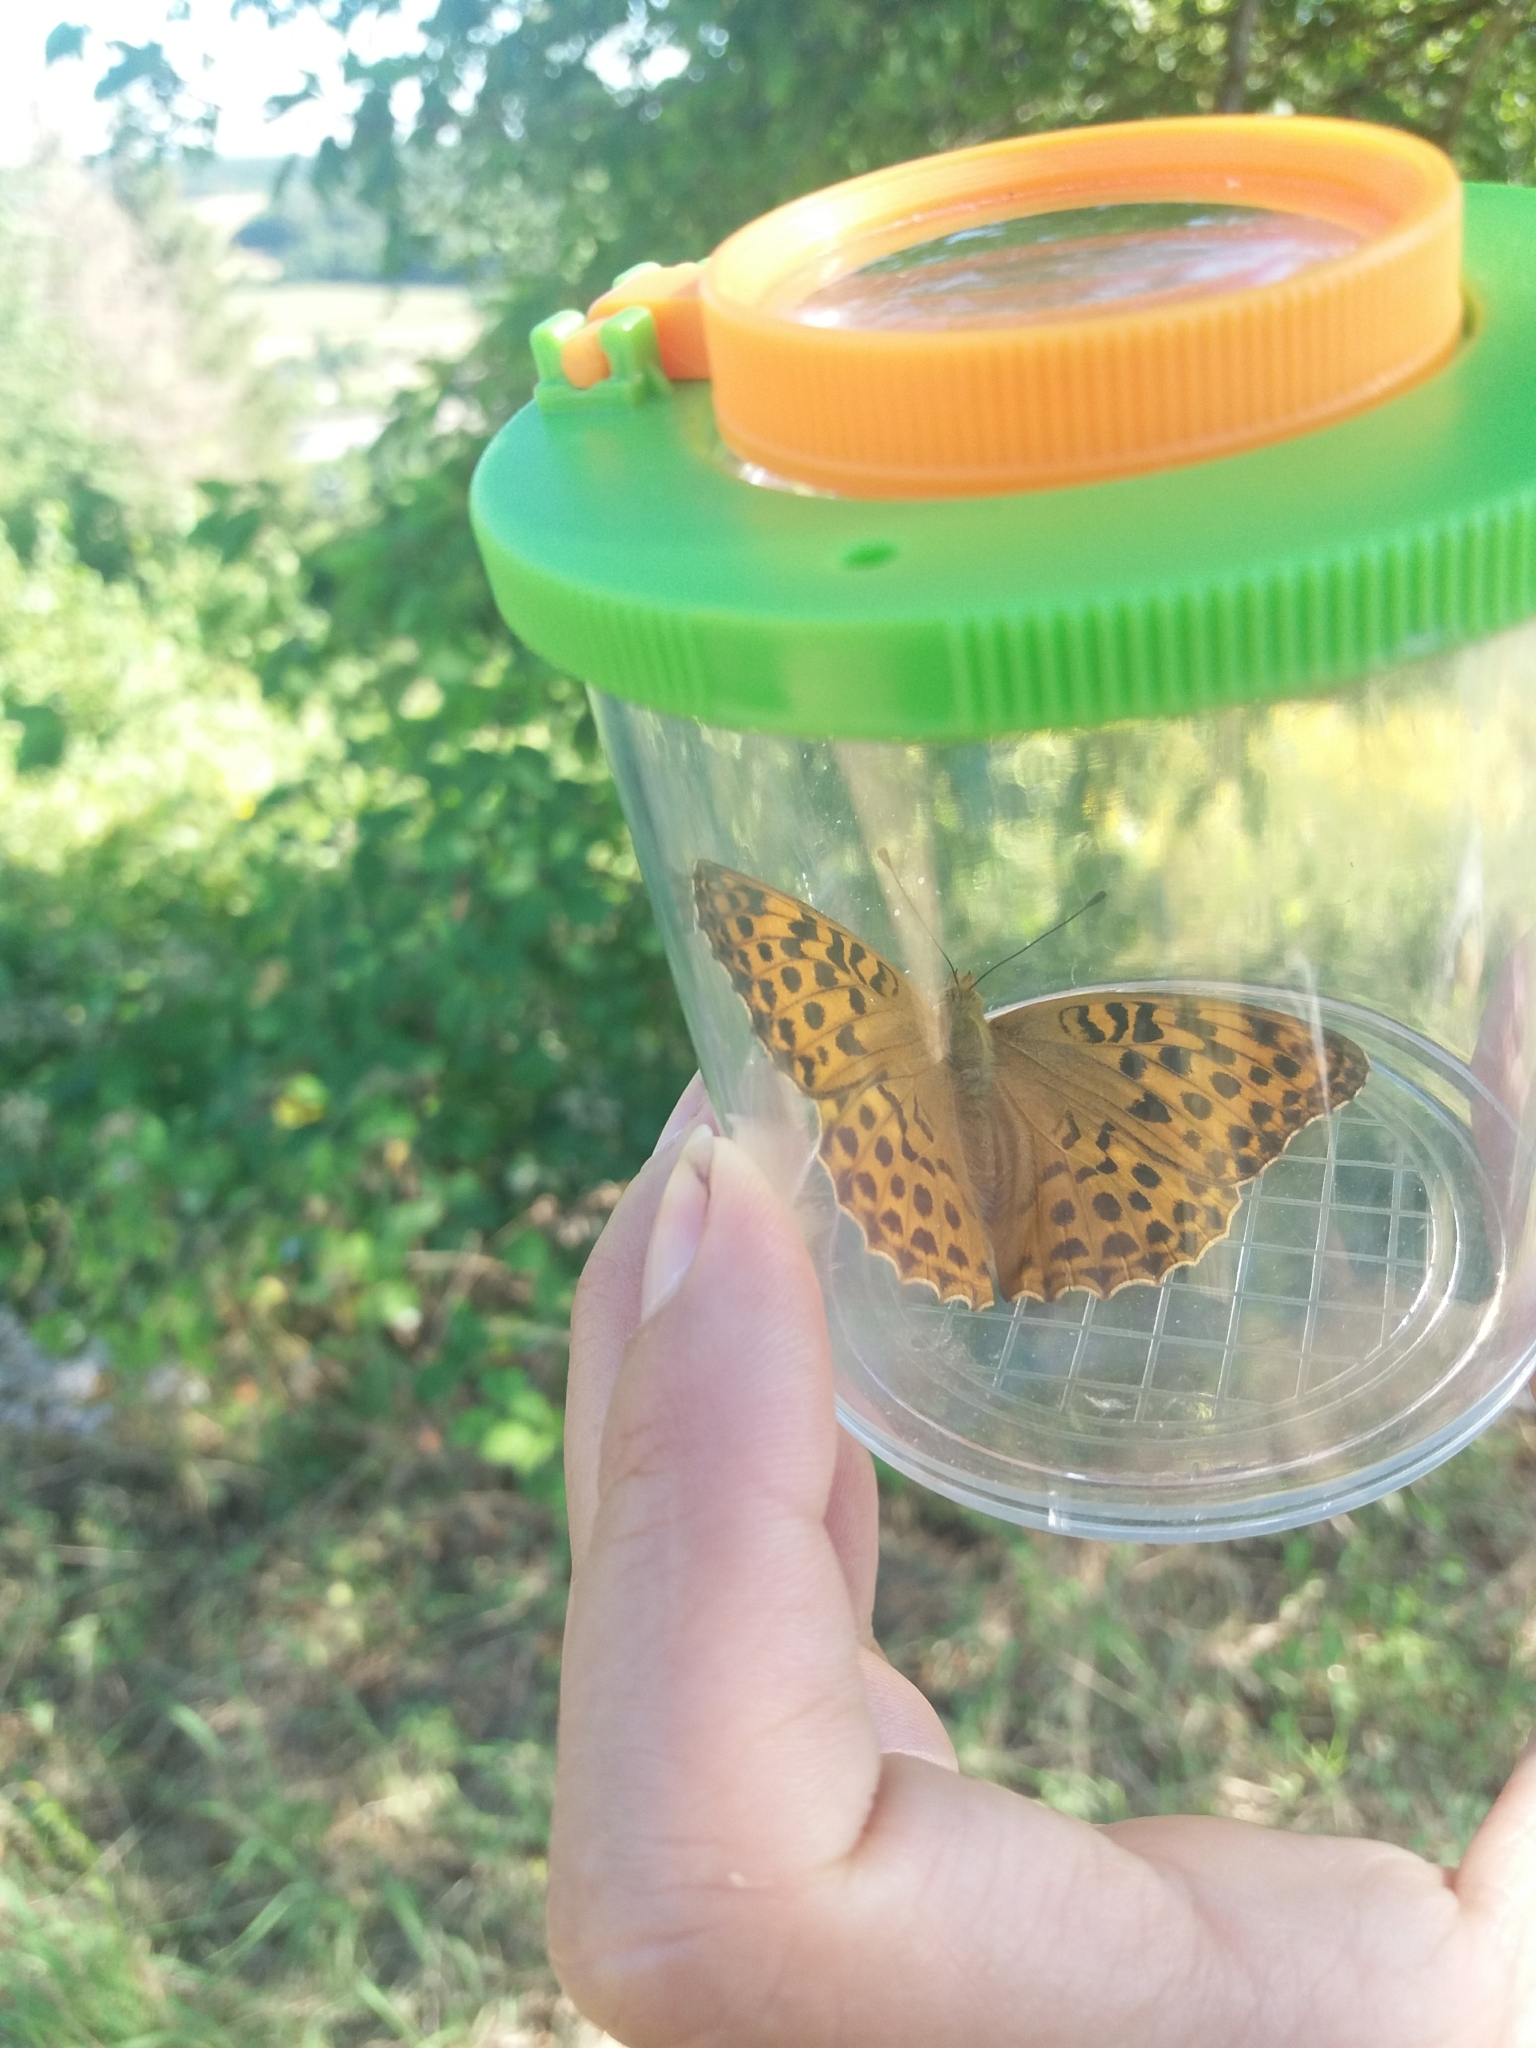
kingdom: Animalia
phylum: Arthropoda
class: Insecta
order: Lepidoptera
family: Nymphalidae
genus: Argynnis
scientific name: Argynnis paphia
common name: Silver-washed fritillary
